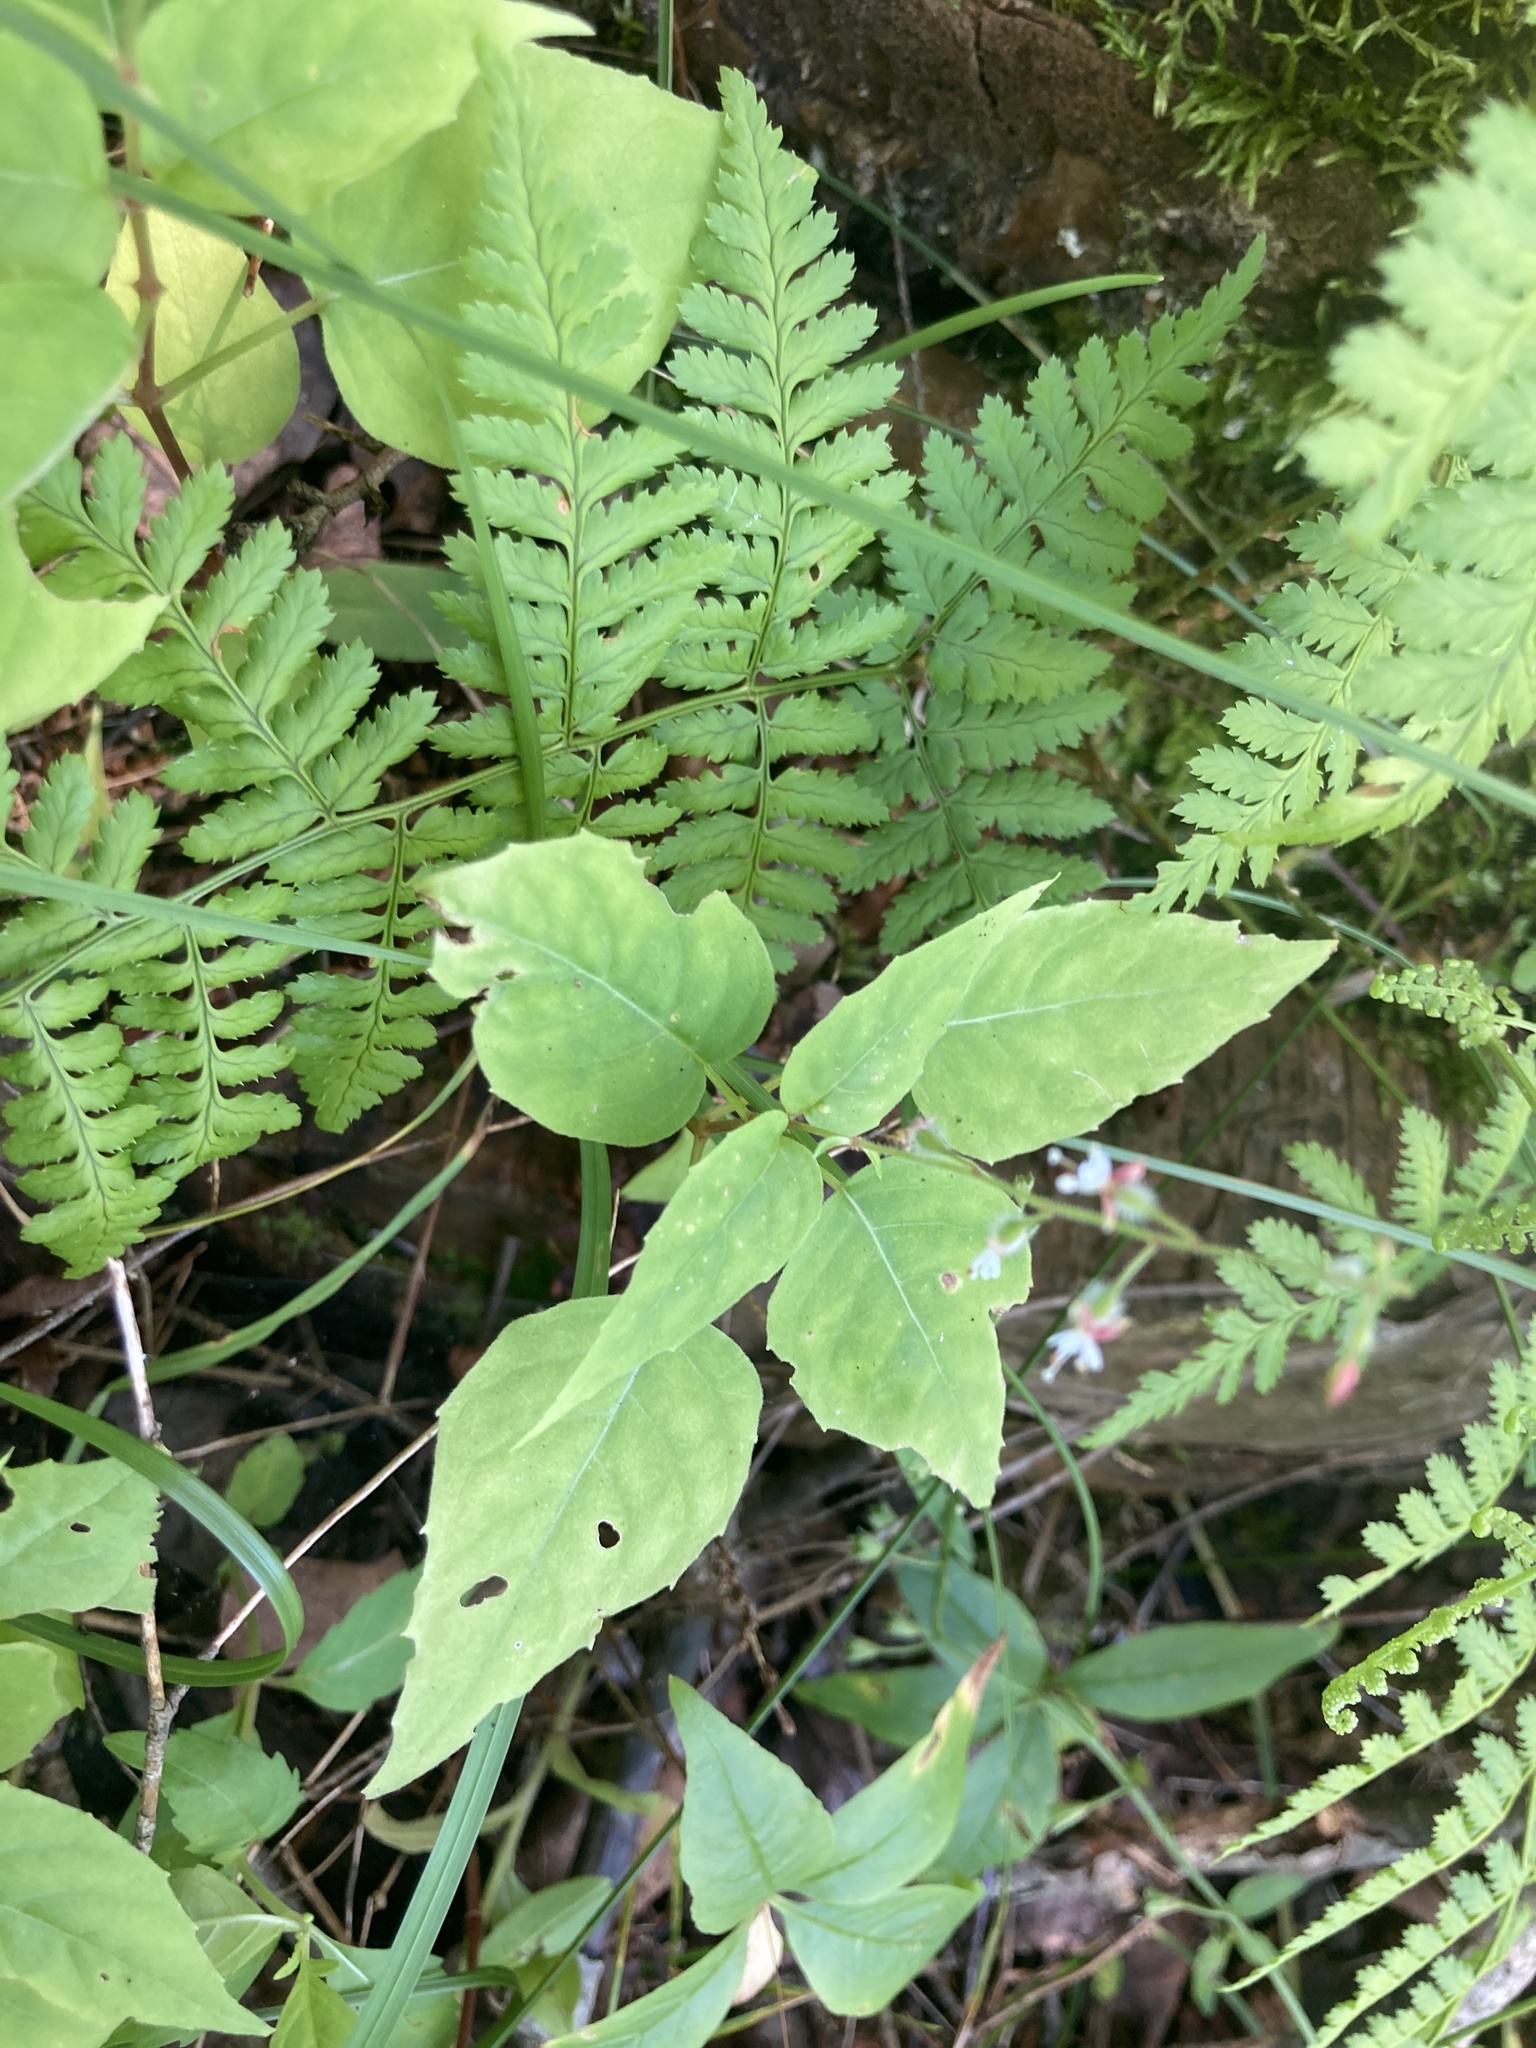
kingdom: Plantae
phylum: Tracheophyta
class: Magnoliopsida
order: Myrtales
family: Onagraceae
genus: Circaea
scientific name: Circaea canadensis
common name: Broad-leaved enchanter's nightshade
